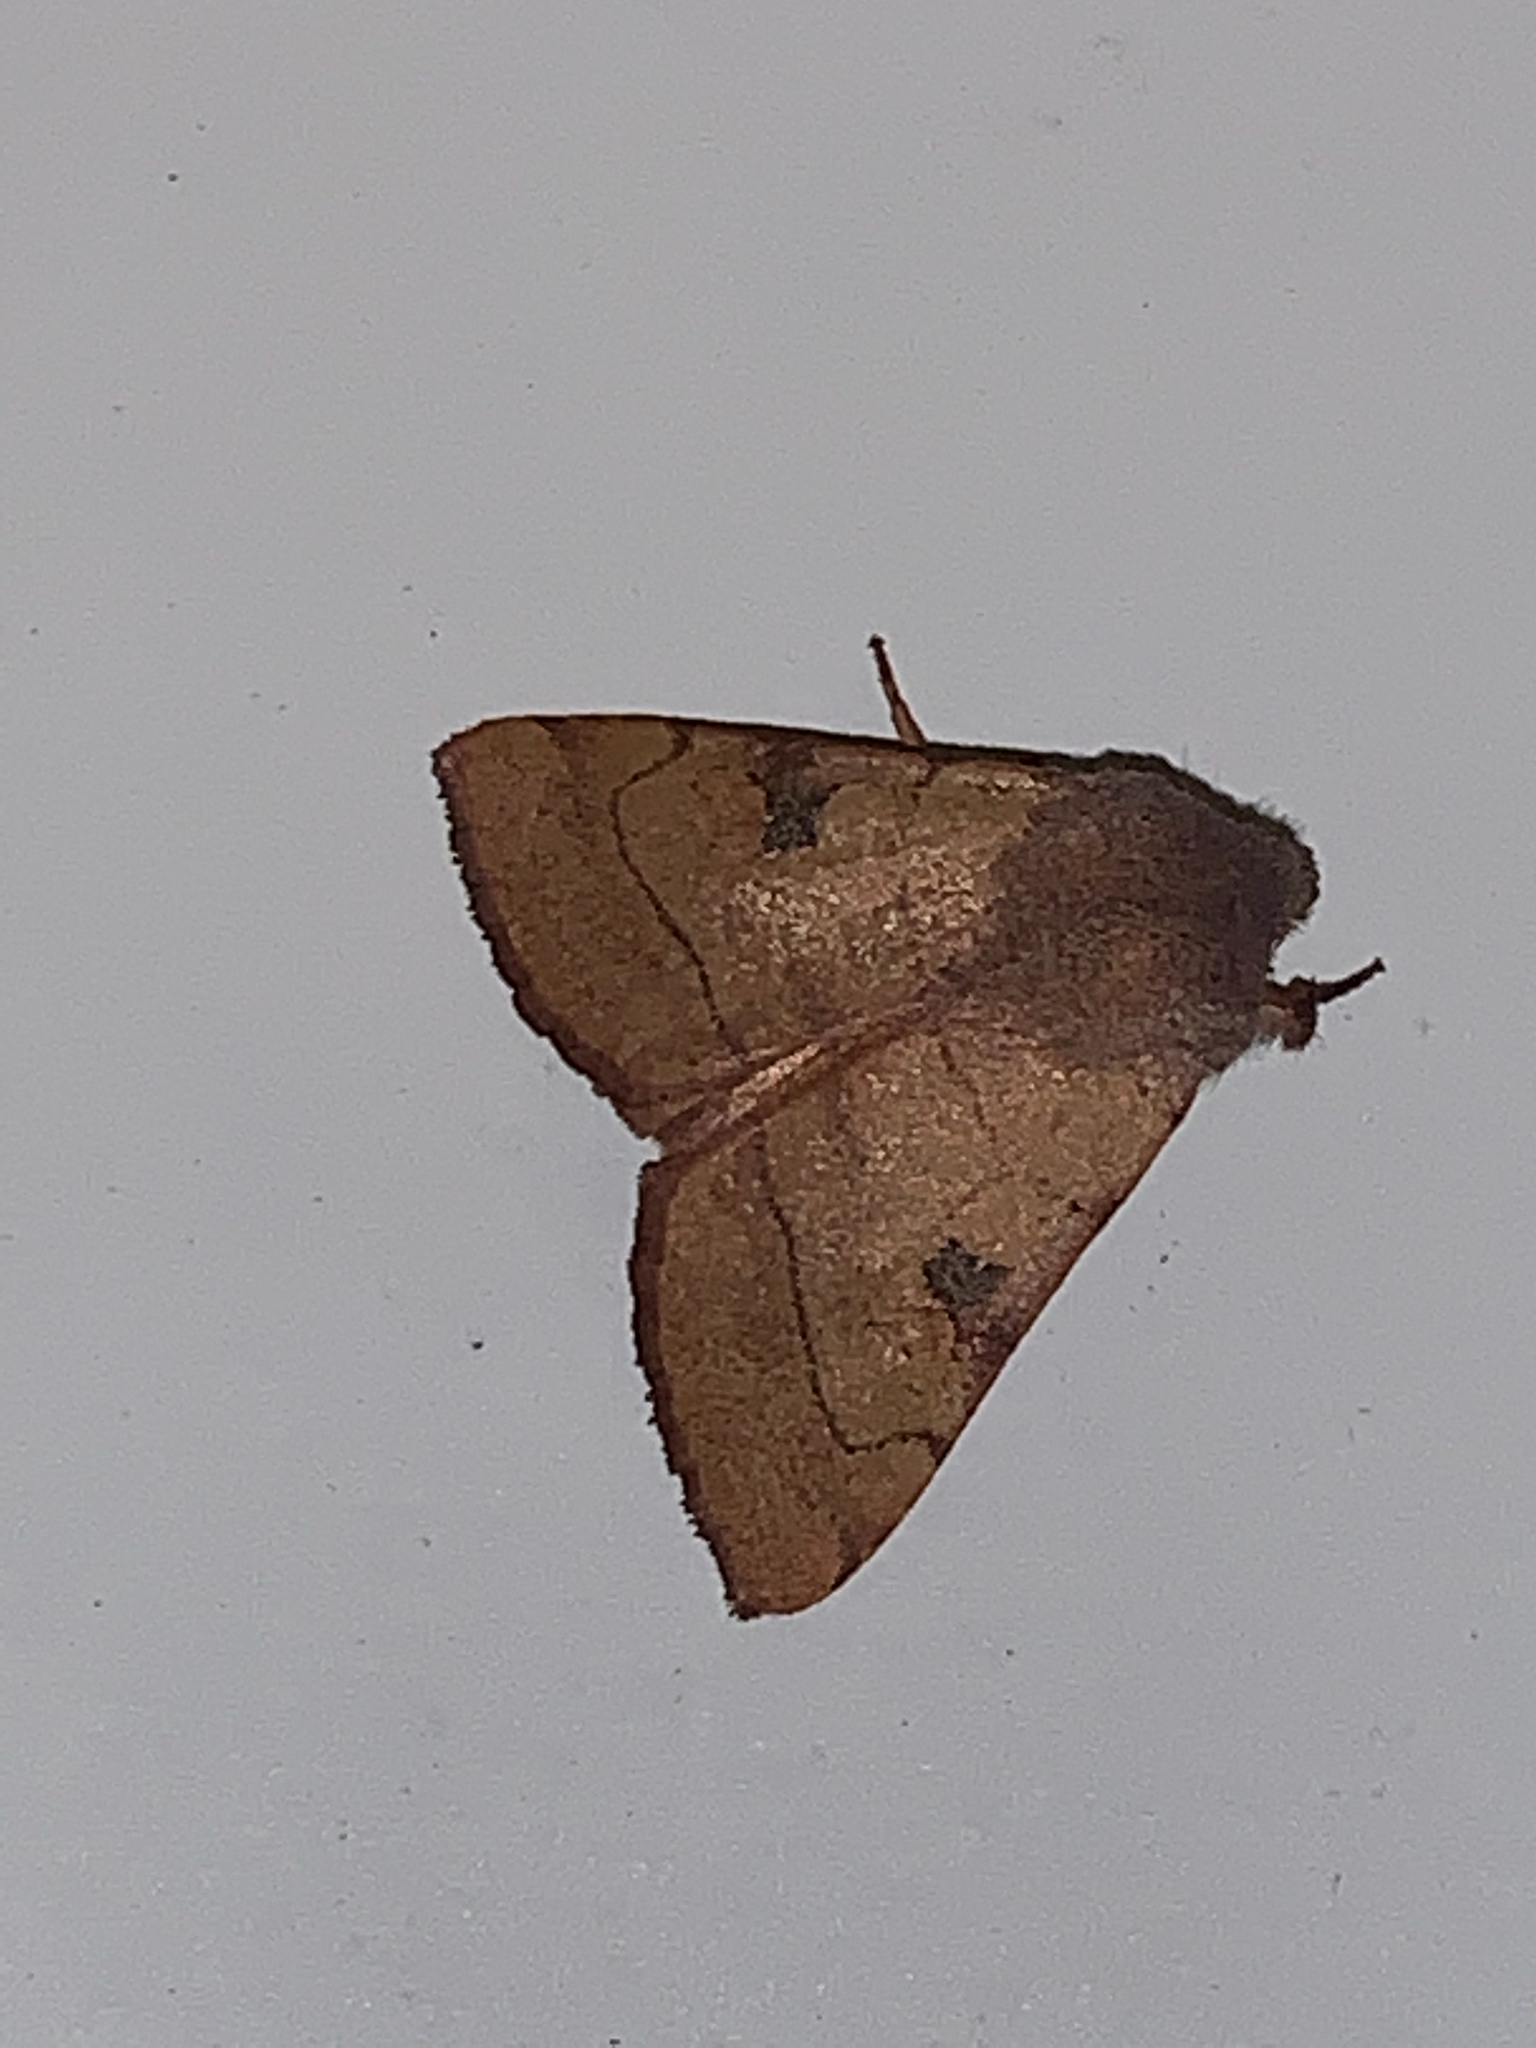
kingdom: Animalia
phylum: Arthropoda
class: Insecta
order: Lepidoptera
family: Noctuidae
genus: Choephora
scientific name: Choephora fungorum
